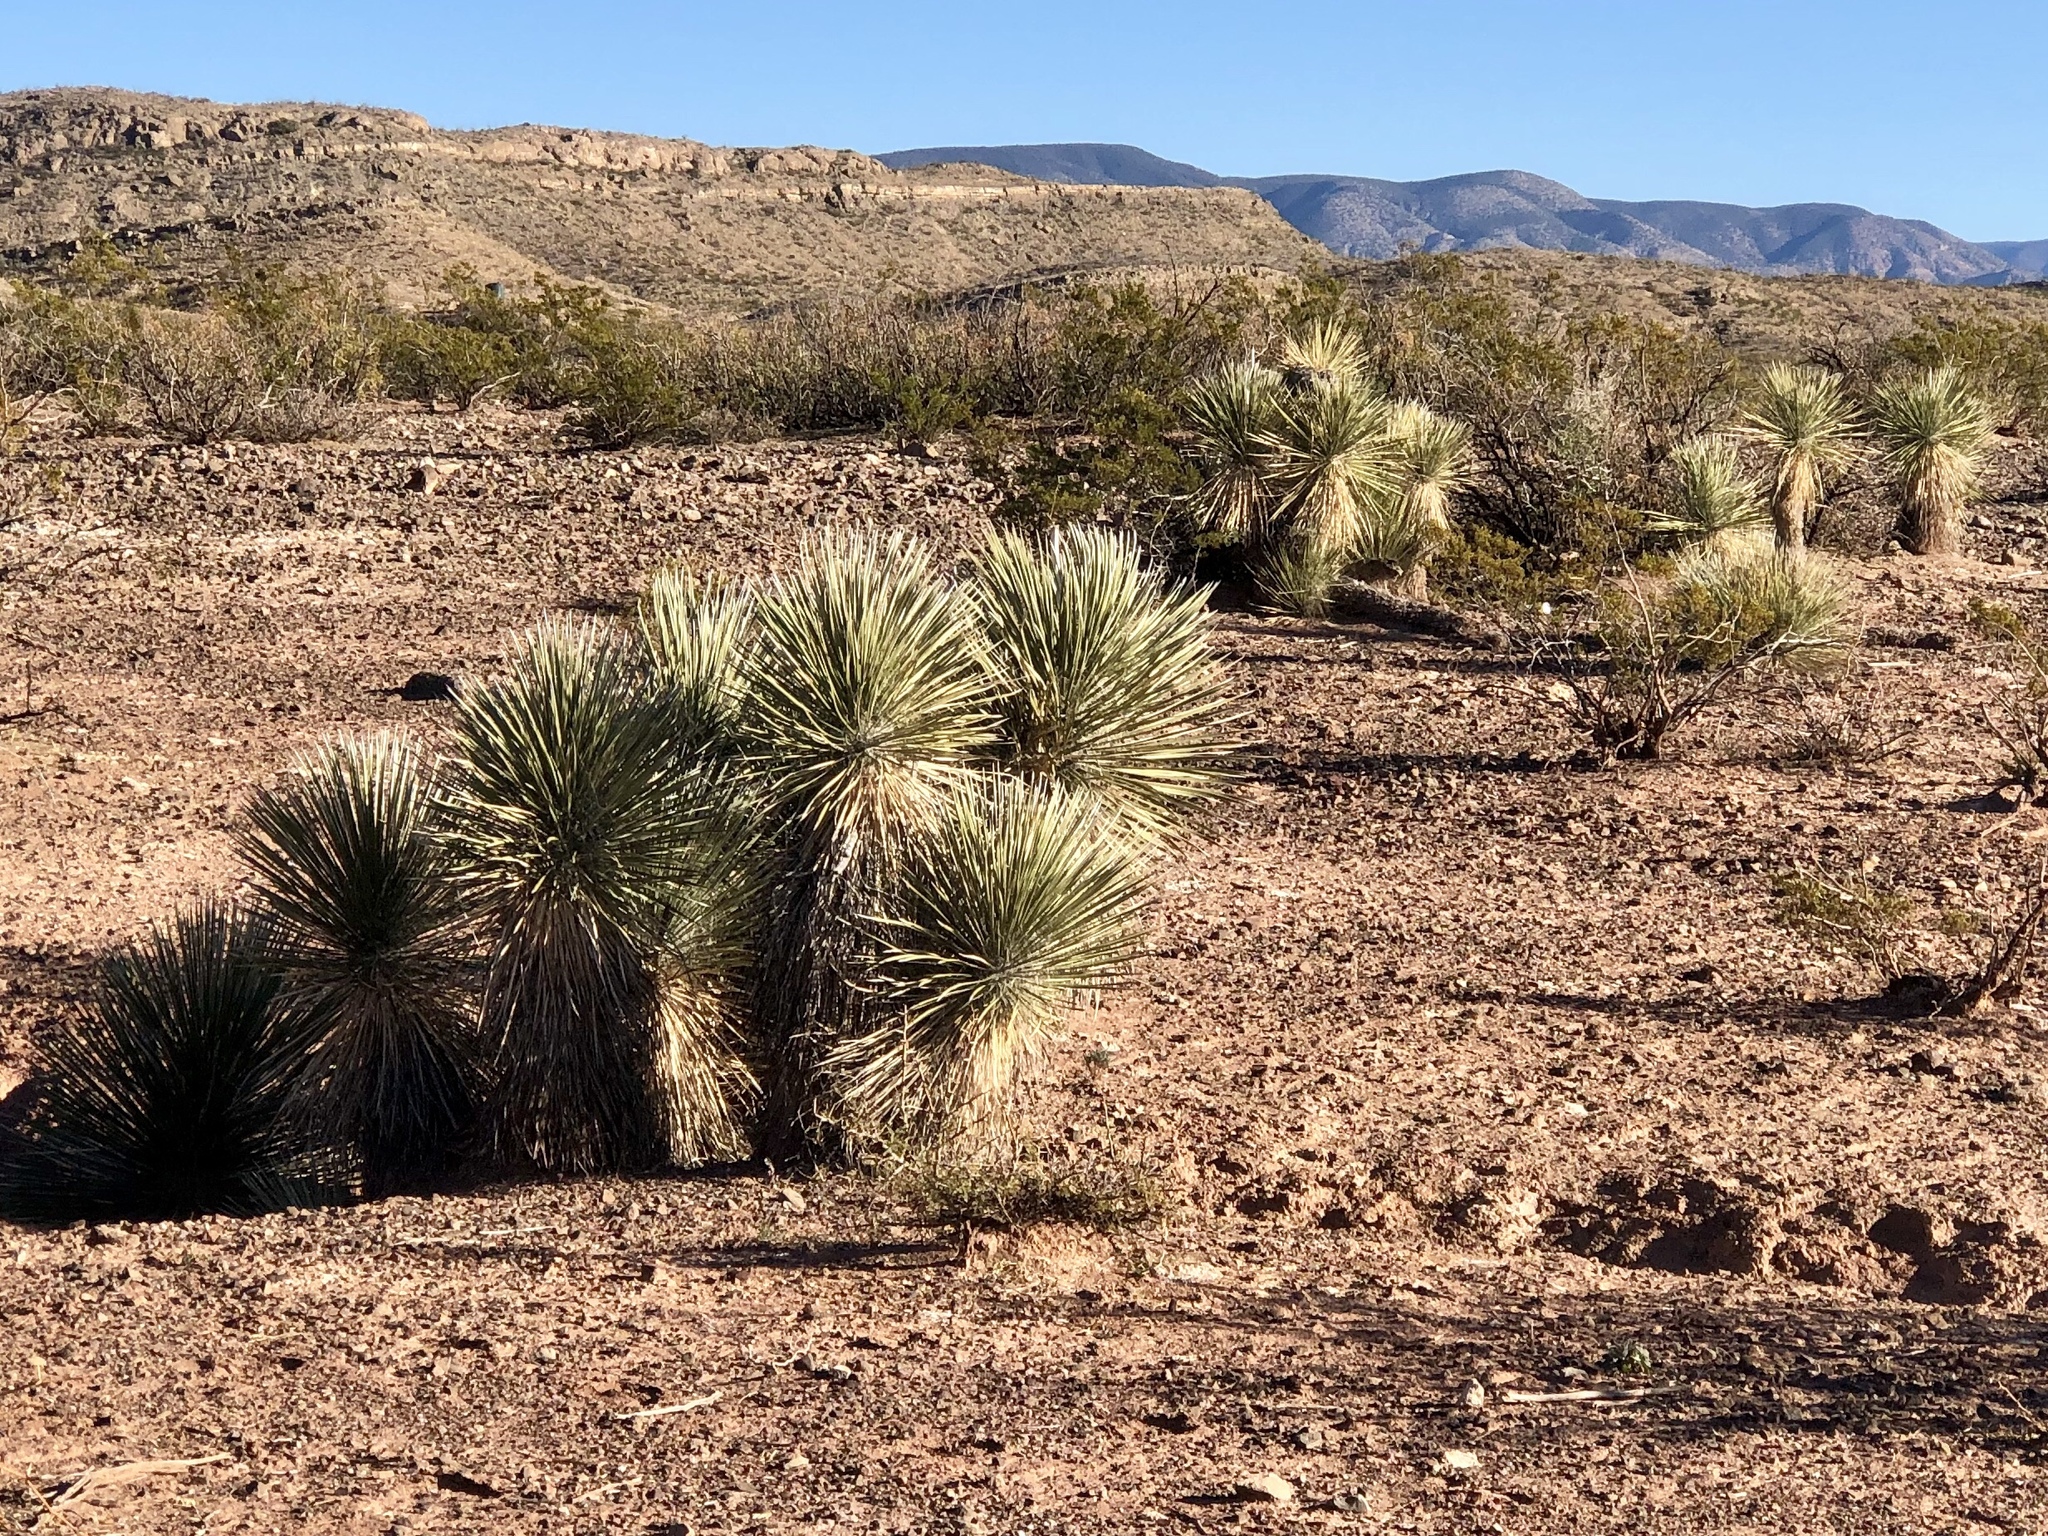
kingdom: Plantae
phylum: Tracheophyta
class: Liliopsida
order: Asparagales
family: Asparagaceae
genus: Yucca
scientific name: Yucca elata
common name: Palmella
